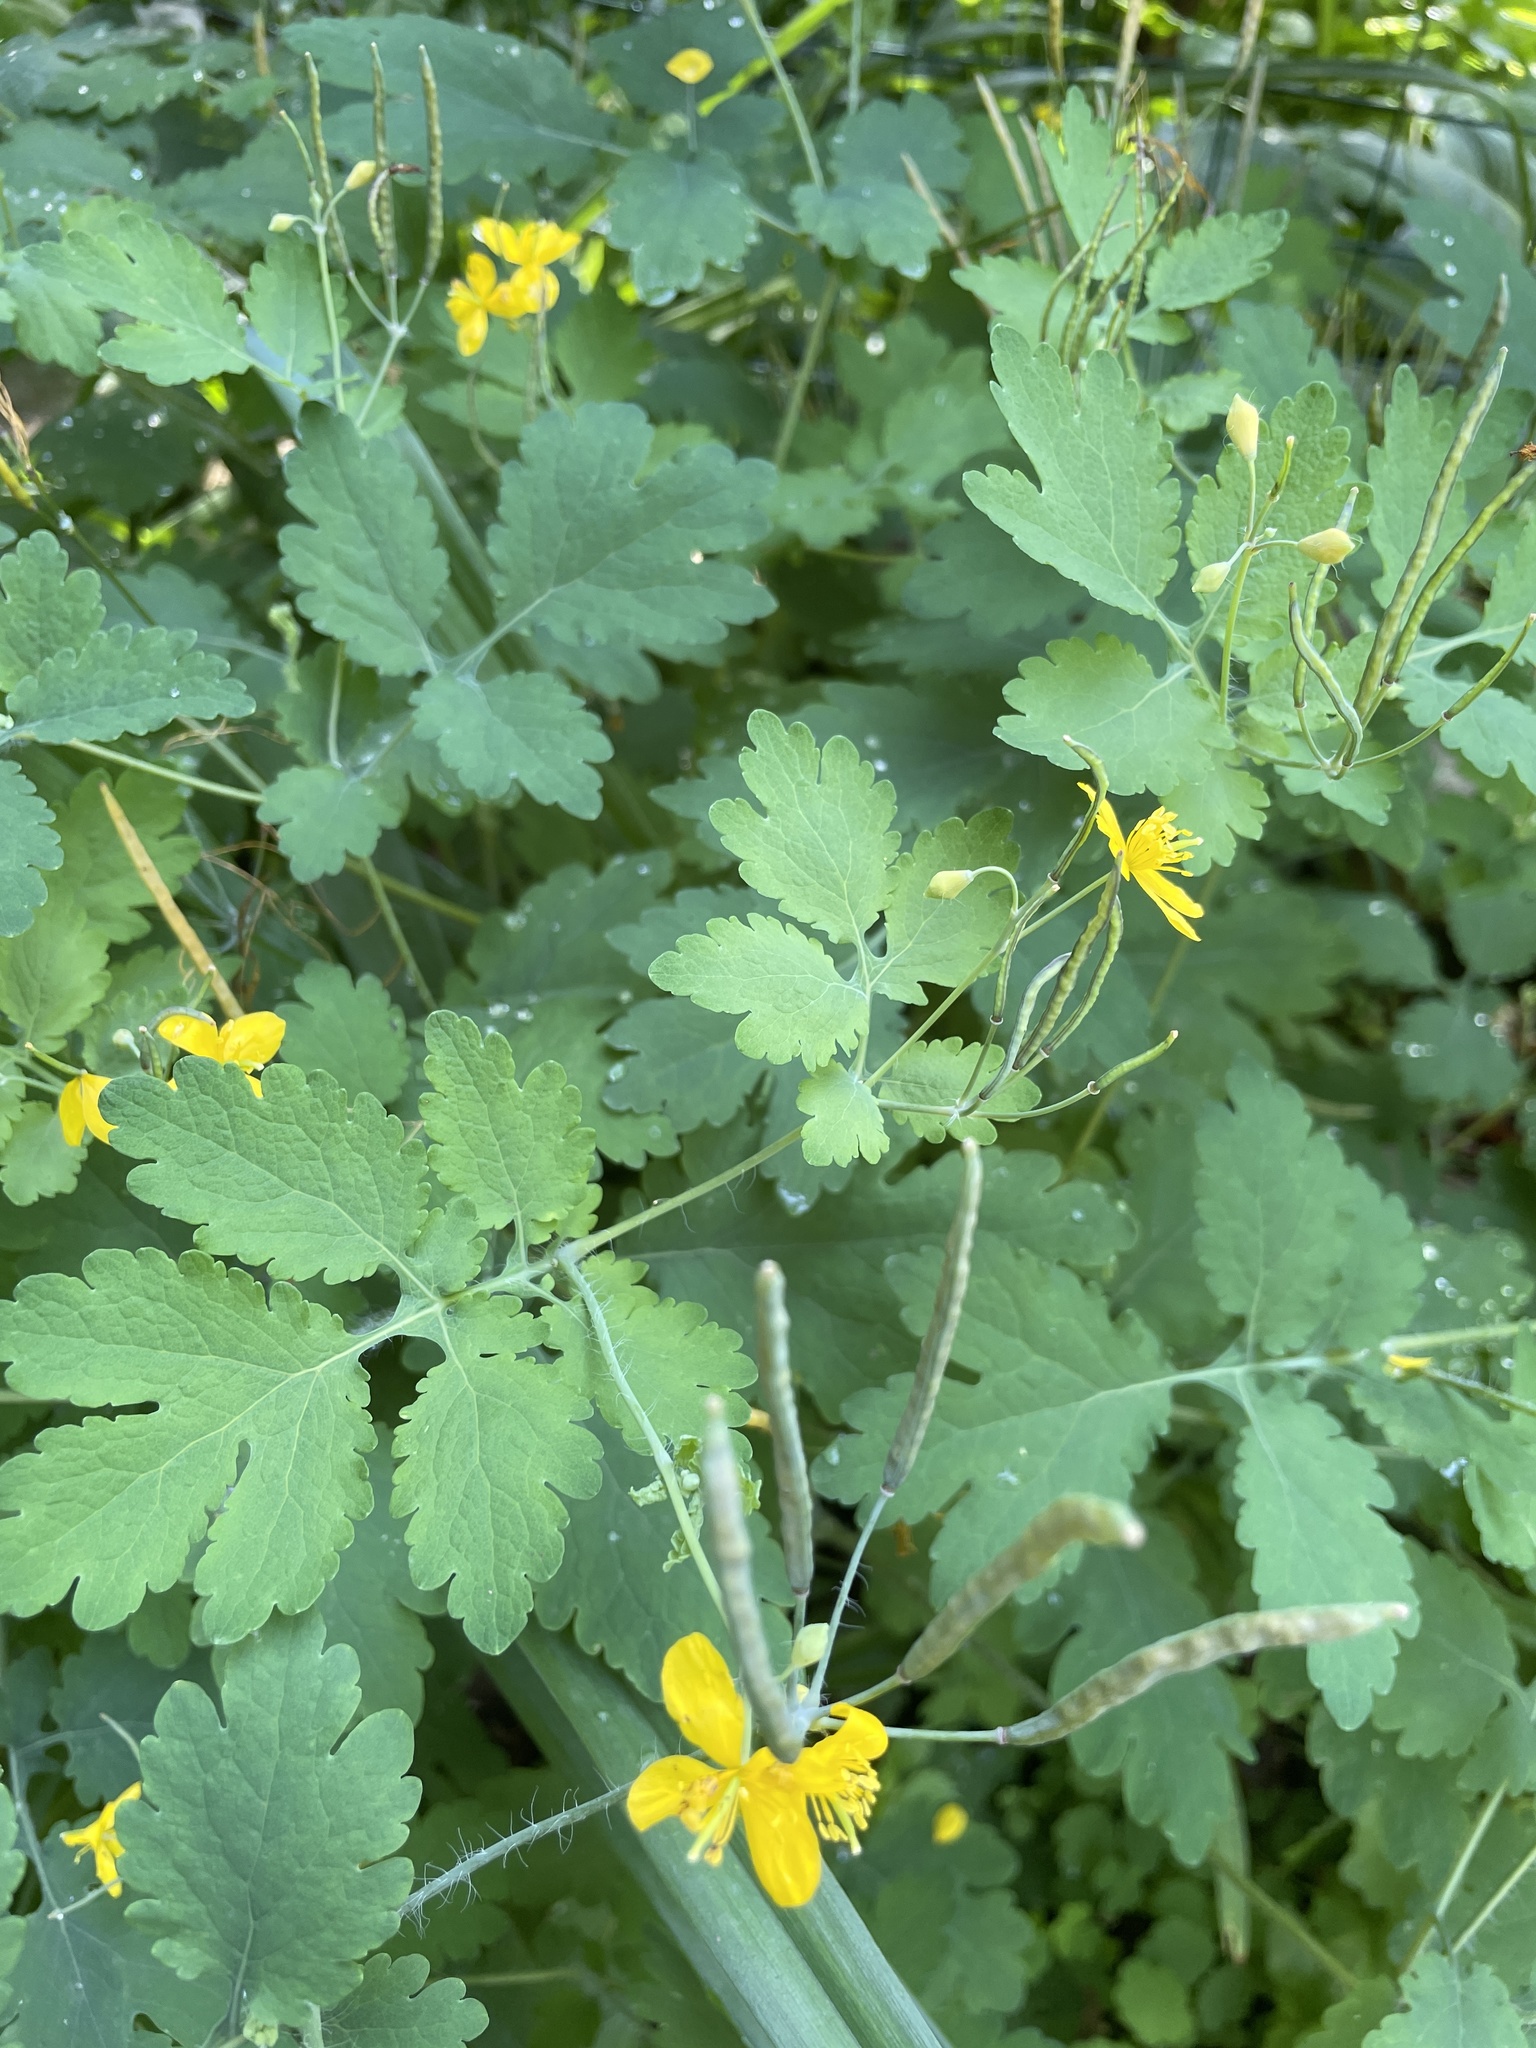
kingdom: Plantae
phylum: Tracheophyta
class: Magnoliopsida
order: Ranunculales
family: Papaveraceae
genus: Chelidonium
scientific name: Chelidonium majus
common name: Greater celandine
